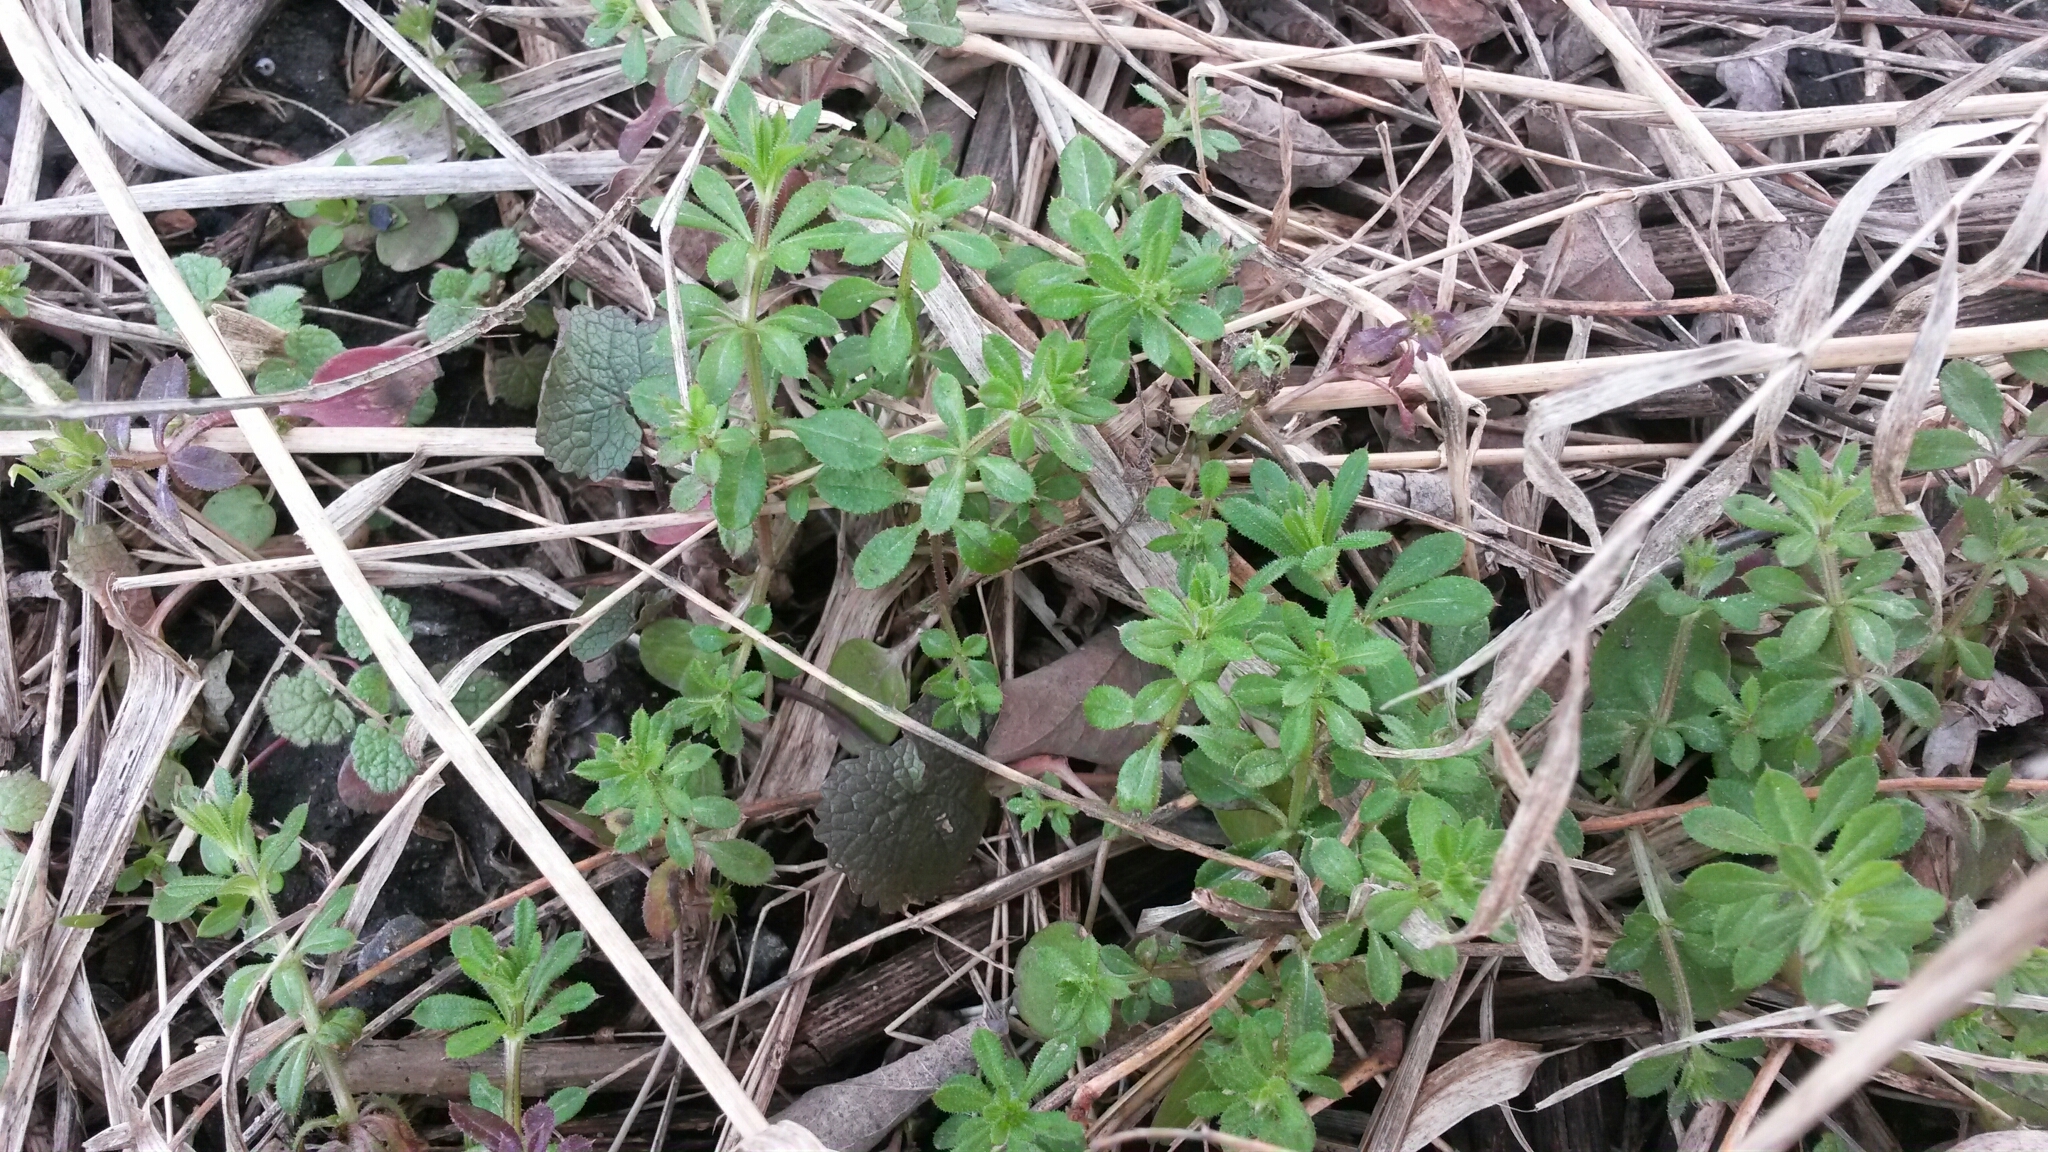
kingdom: Plantae
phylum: Tracheophyta
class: Magnoliopsida
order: Gentianales
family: Rubiaceae
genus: Galium
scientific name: Galium aparine
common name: Cleavers
